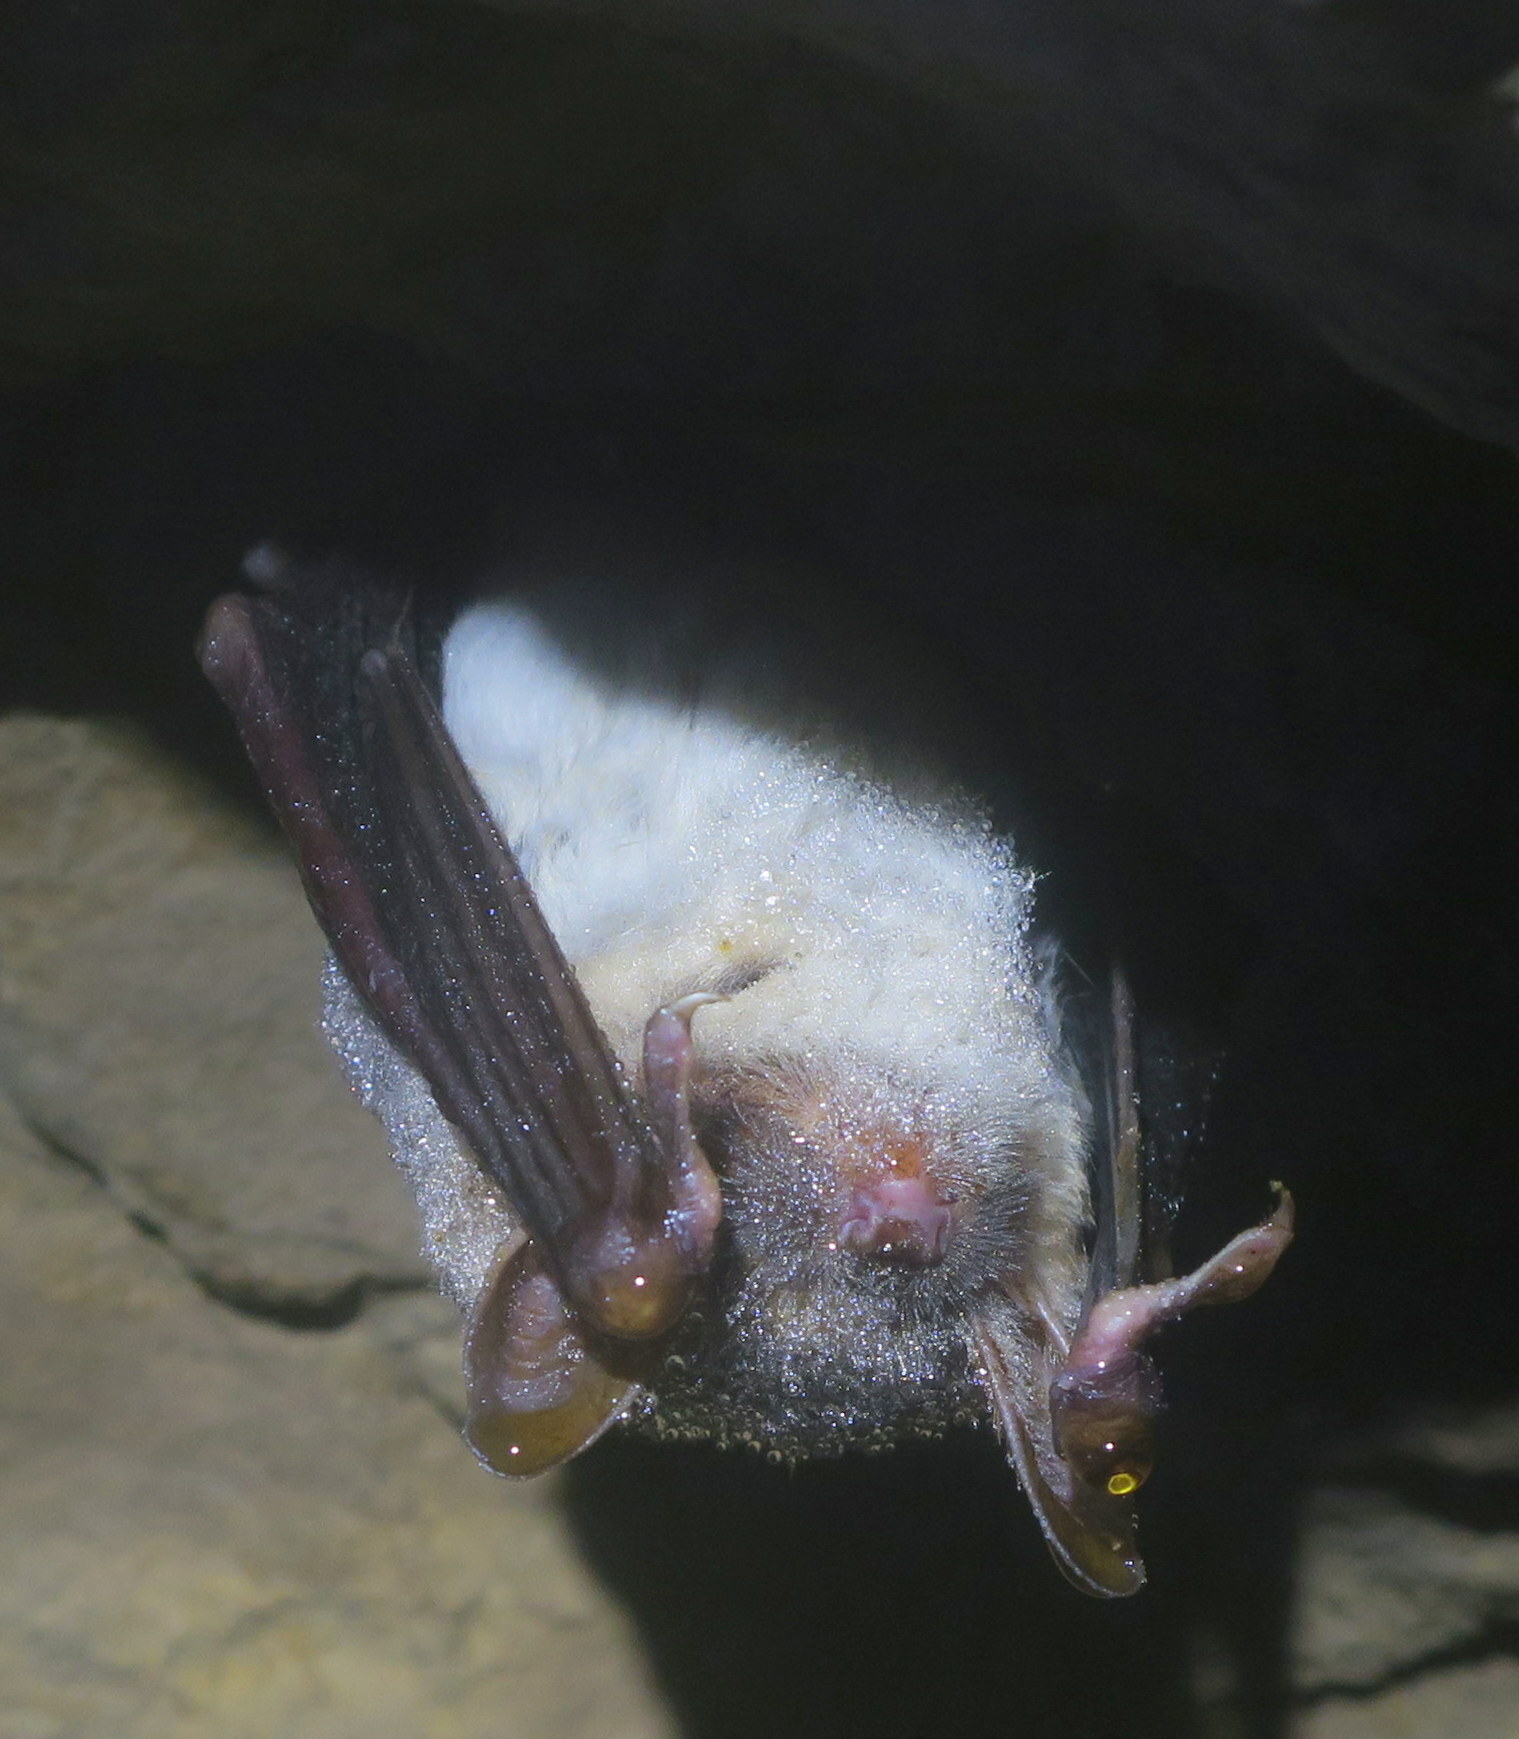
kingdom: Animalia
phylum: Chordata
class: Mammalia
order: Chiroptera
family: Vespertilionidae
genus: Myotis
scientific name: Myotis myotis
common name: Greater mouse-eared bat
